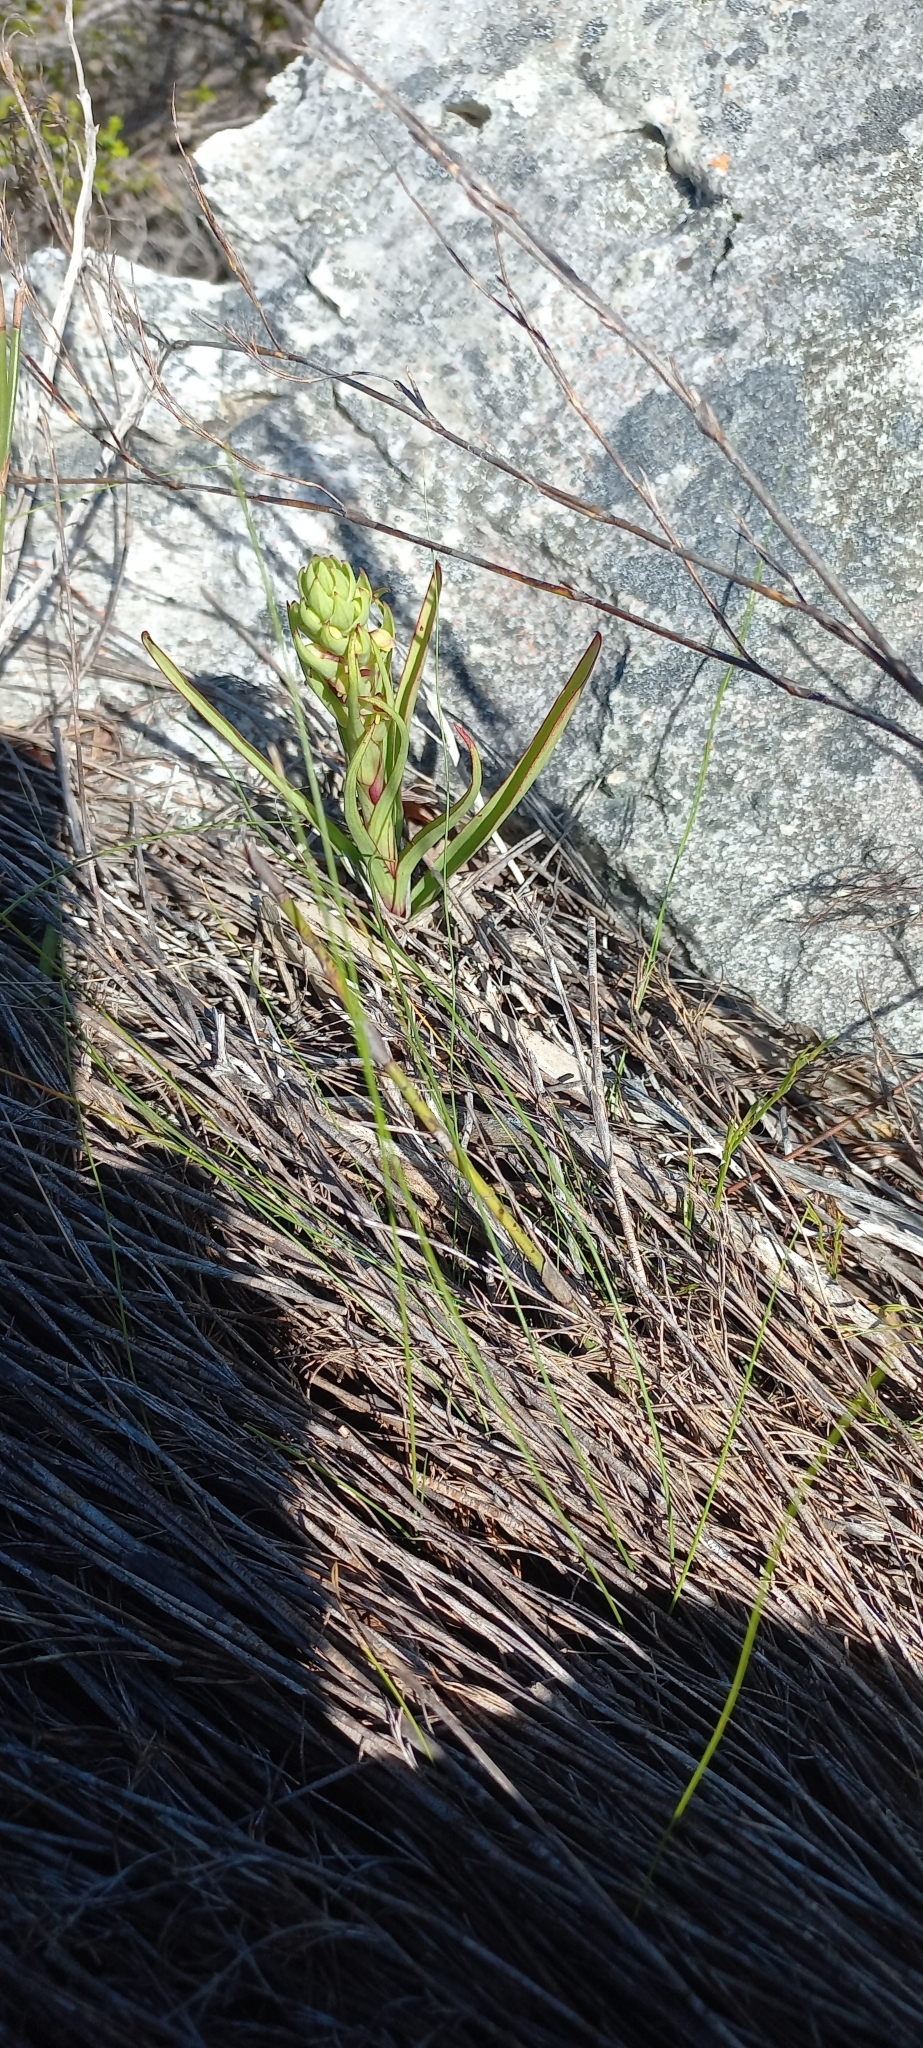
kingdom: Plantae
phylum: Tracheophyta
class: Liliopsida
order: Asparagales
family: Orchidaceae
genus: Disa
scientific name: Disa bracteata
